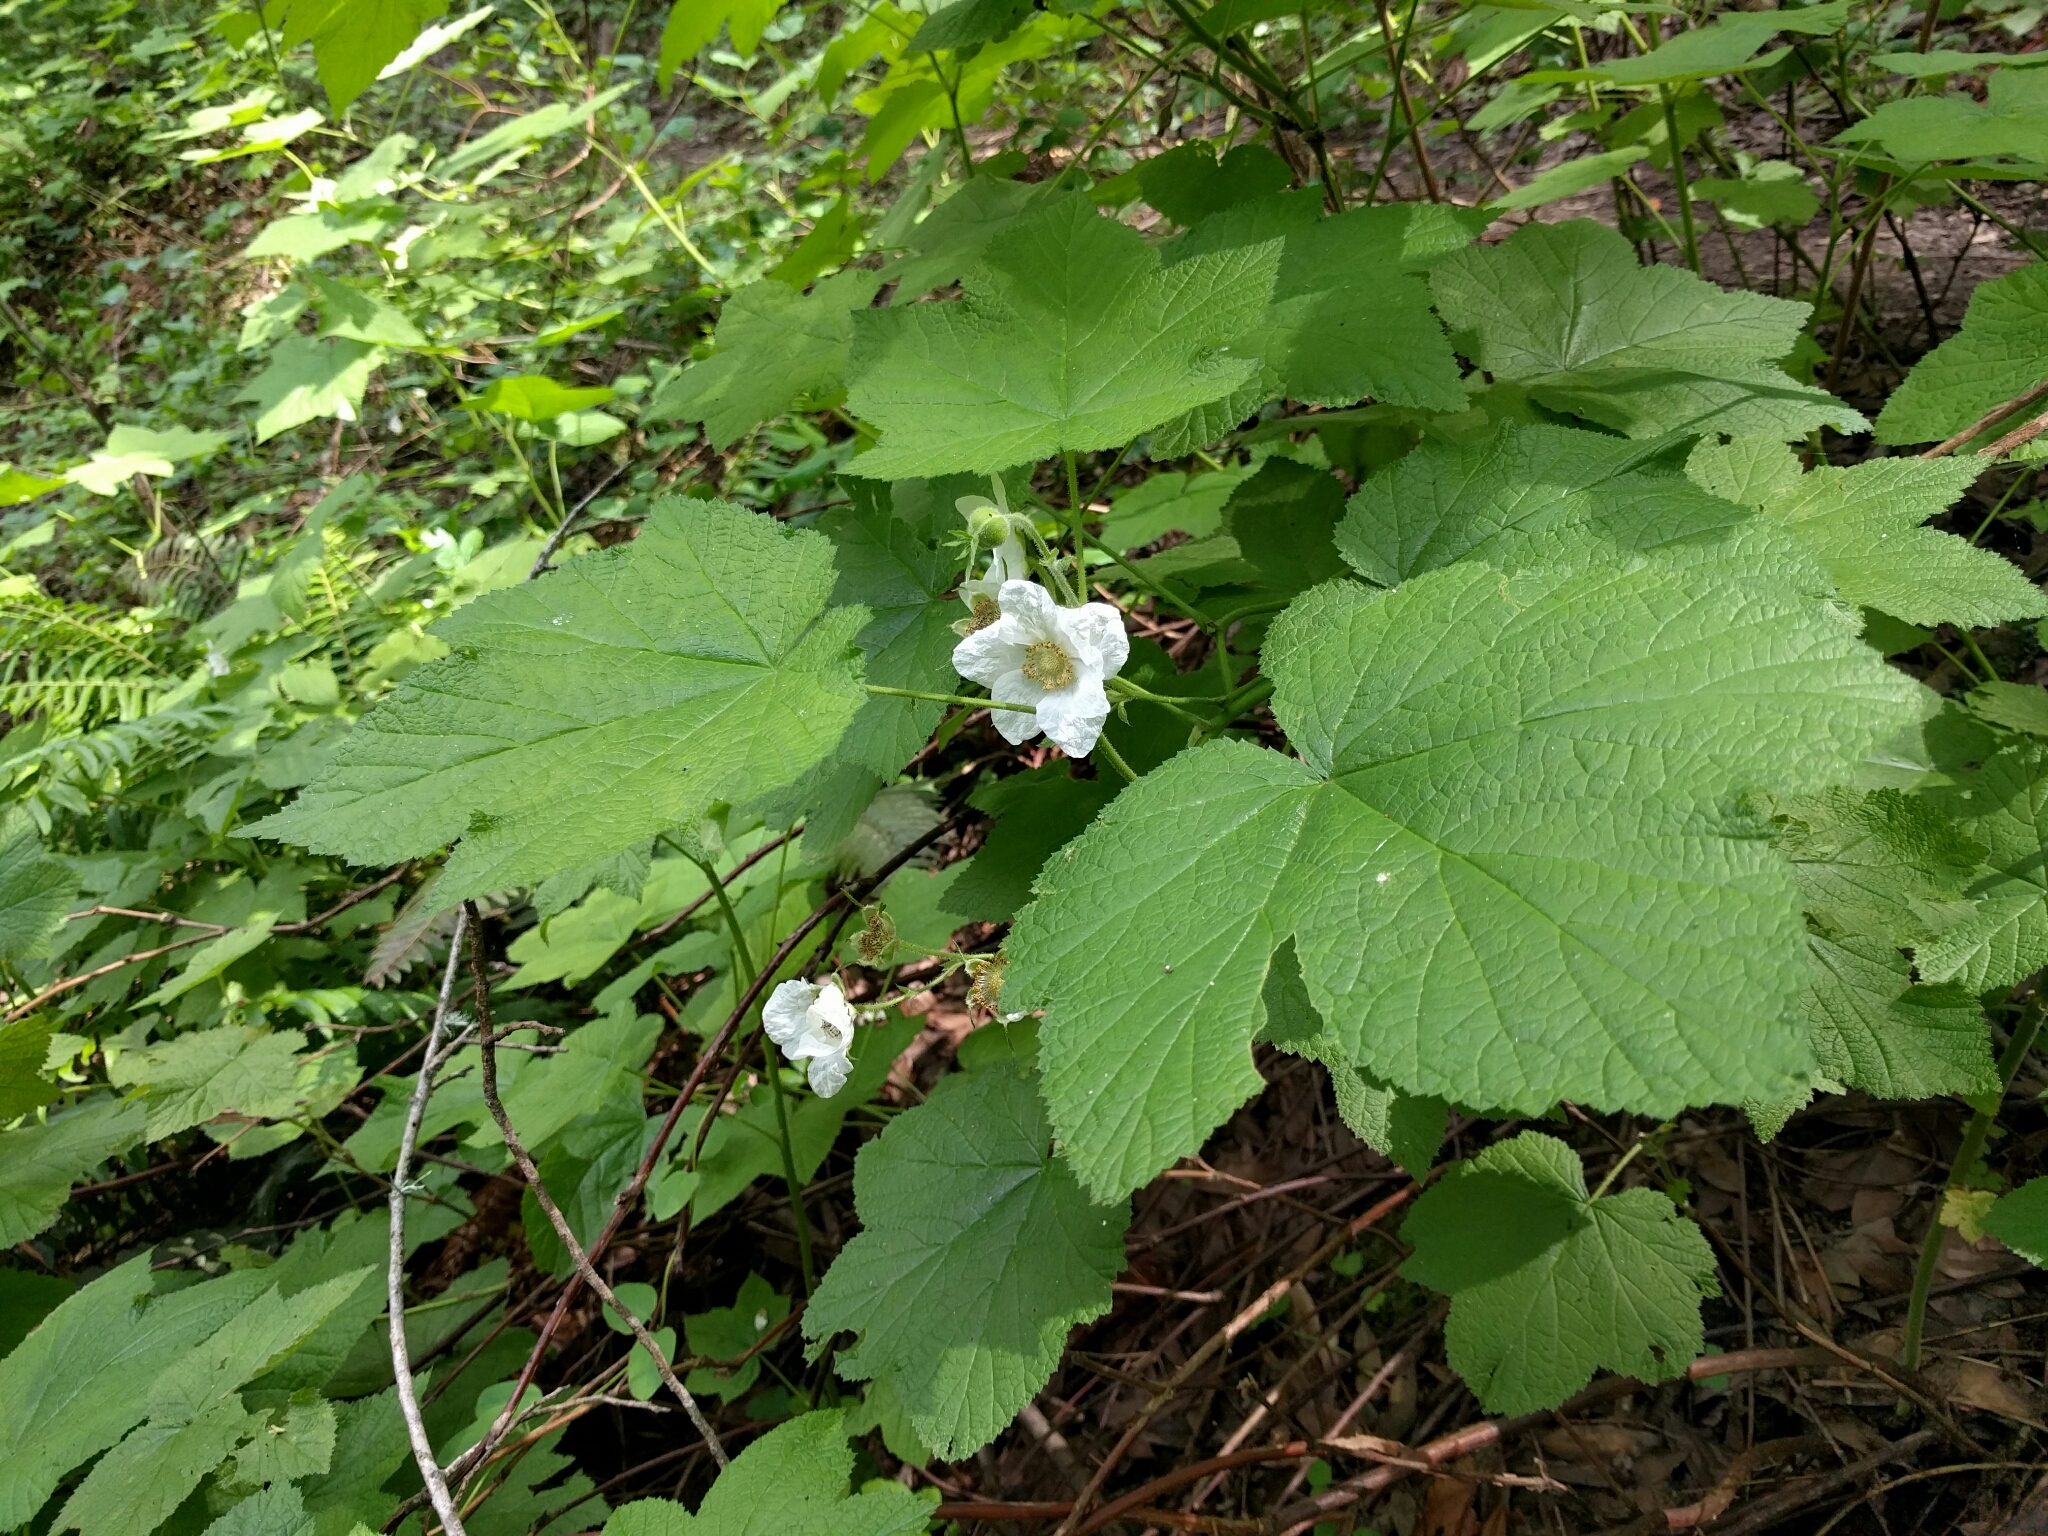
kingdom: Plantae
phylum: Tracheophyta
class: Magnoliopsida
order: Rosales
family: Rosaceae
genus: Rubus
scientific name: Rubus parviflorus
